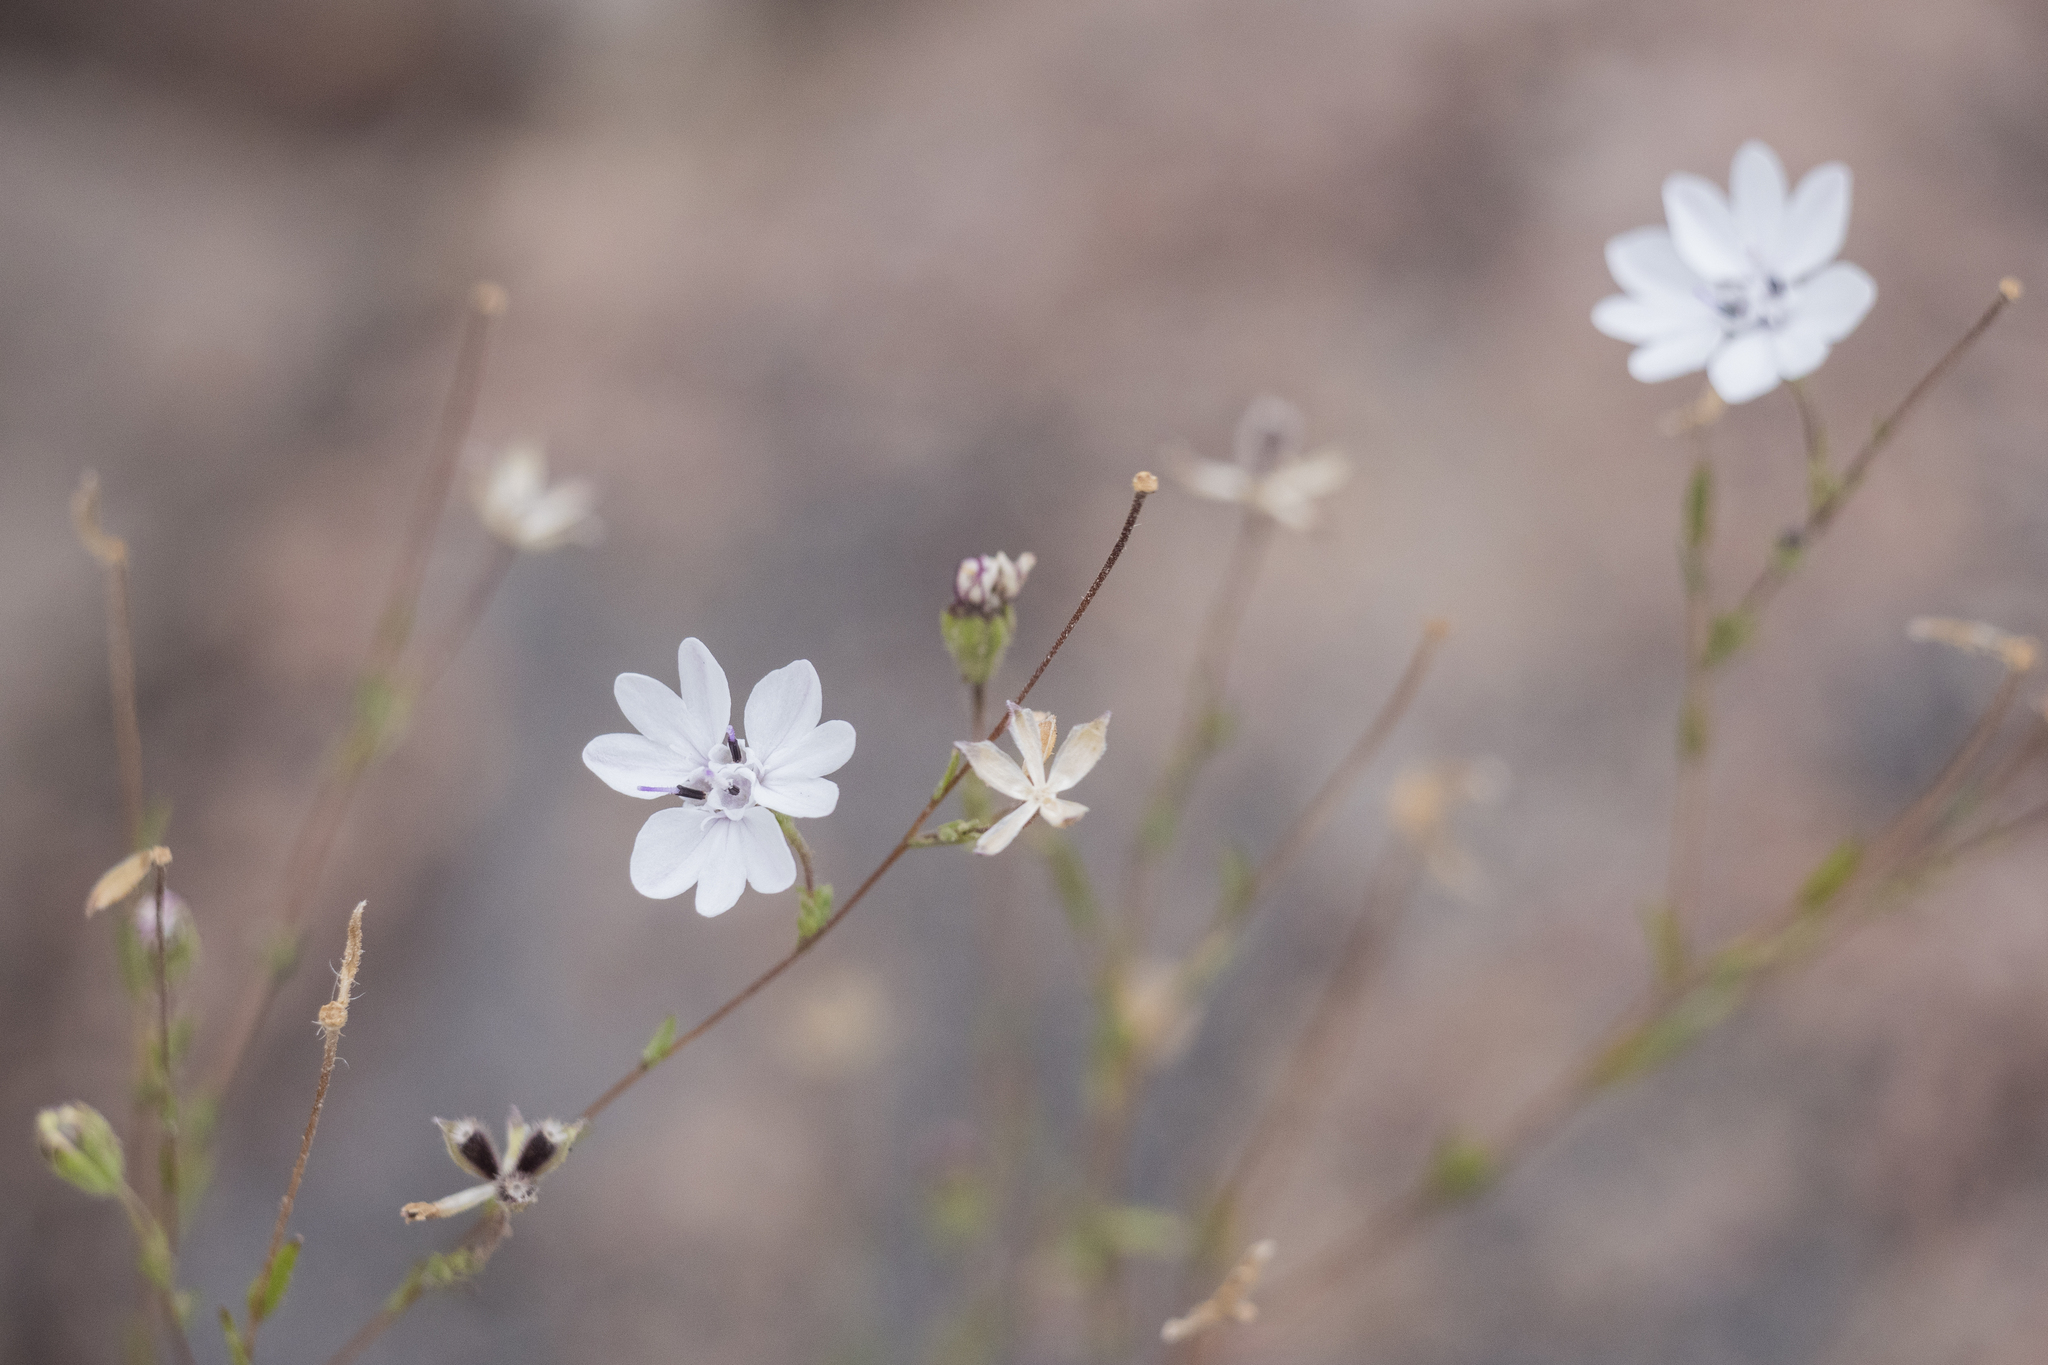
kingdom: Plantae
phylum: Tracheophyta
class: Magnoliopsida
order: Asterales
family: Asteraceae
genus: Blepharipappus
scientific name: Blepharipappus scaber
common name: Rough blepharipappus
